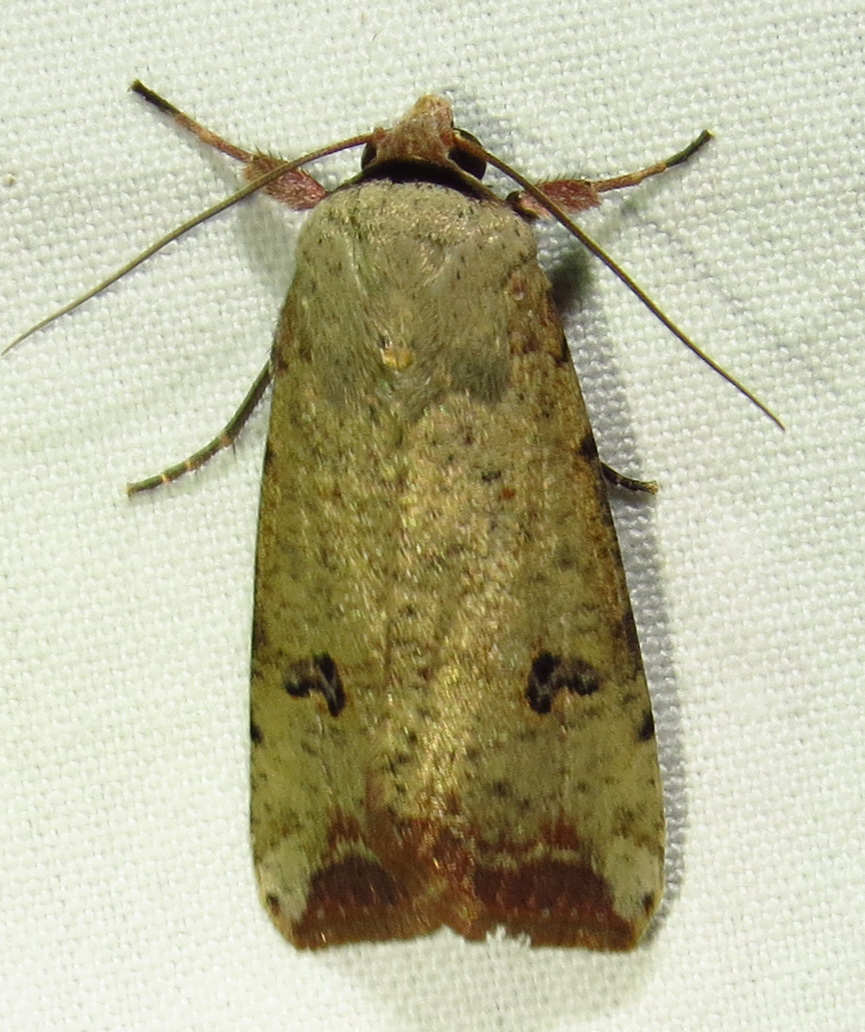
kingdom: Animalia
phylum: Arthropoda
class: Insecta
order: Lepidoptera
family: Noctuidae
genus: Anicla
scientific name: Anicla infecta
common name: Green cutworm
